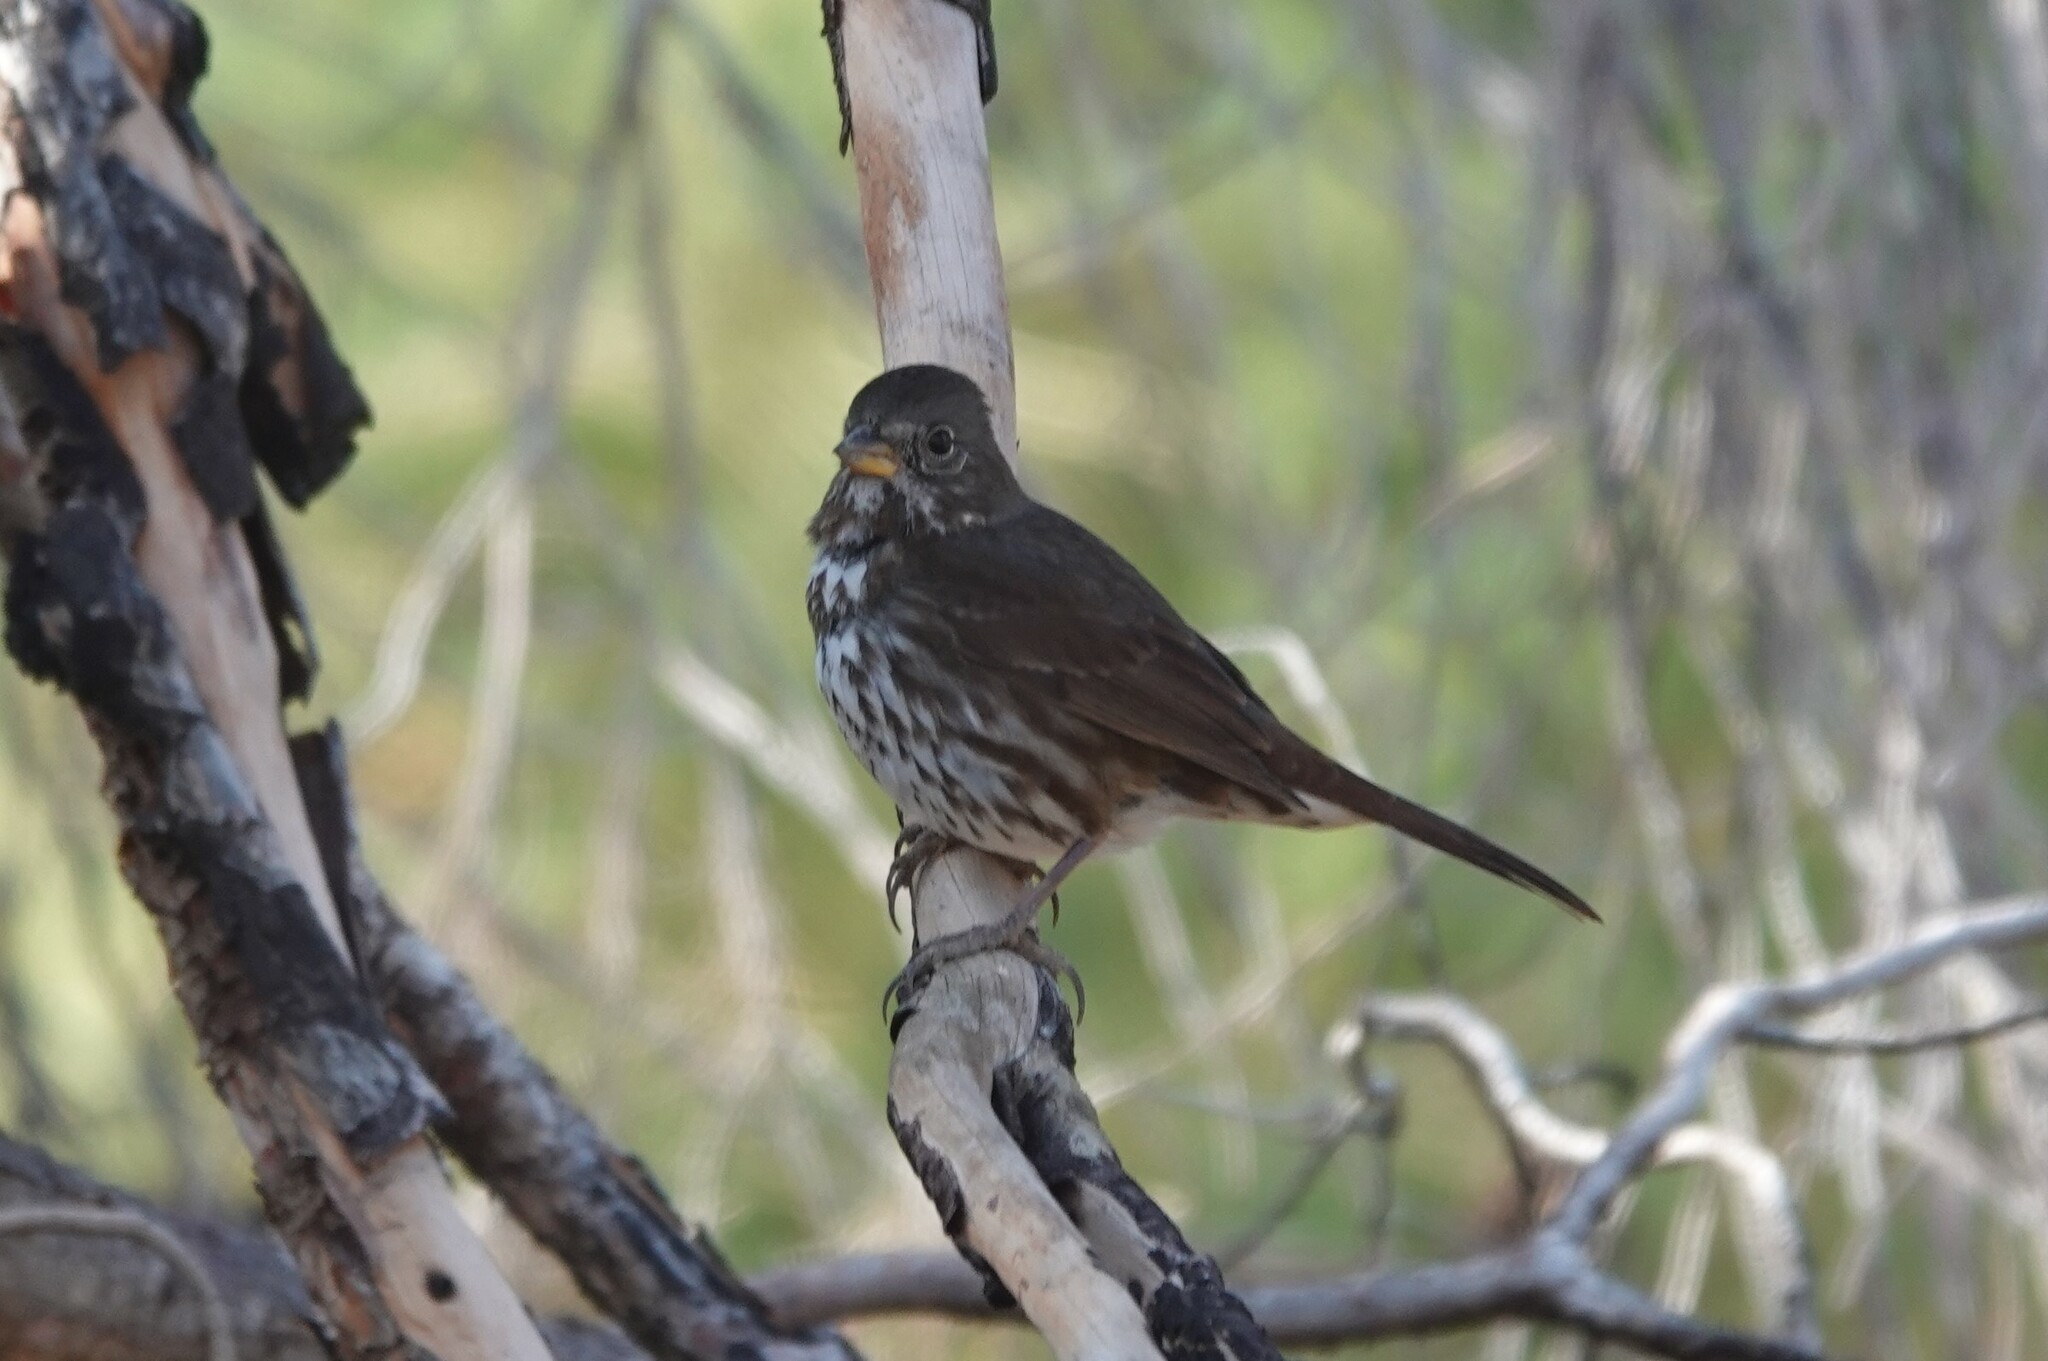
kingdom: Animalia
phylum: Chordata
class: Aves
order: Passeriformes
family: Passerellidae
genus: Passerella
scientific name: Passerella iliaca
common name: Fox sparrow
